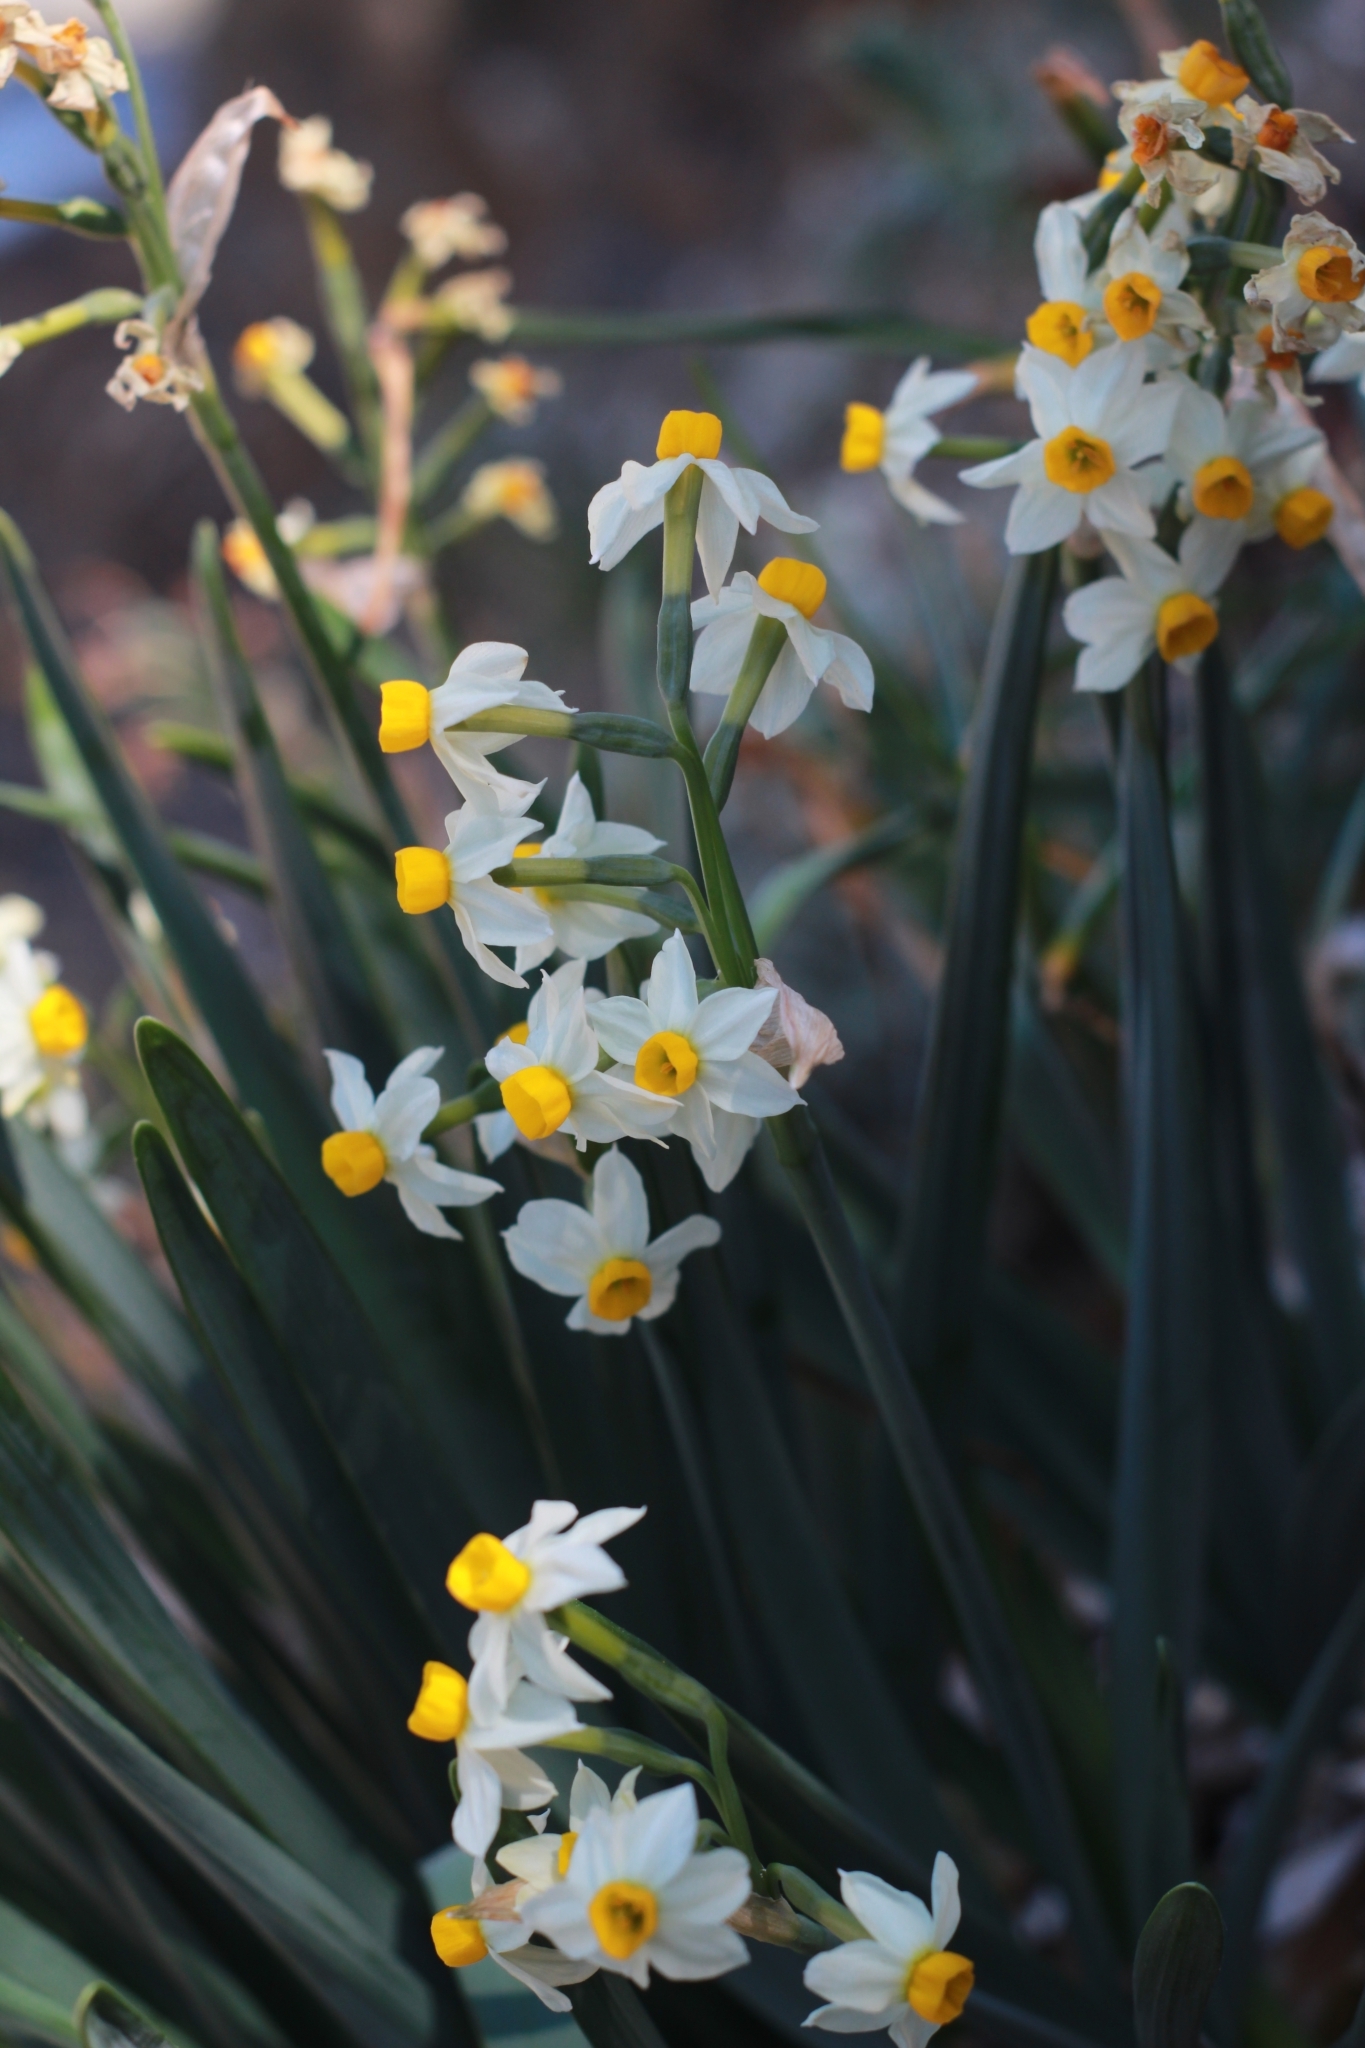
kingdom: Plantae
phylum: Tracheophyta
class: Liliopsida
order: Asparagales
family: Amaryllidaceae
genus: Narcissus
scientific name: Narcissus tazetta
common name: Bunch-flowered daffodil
